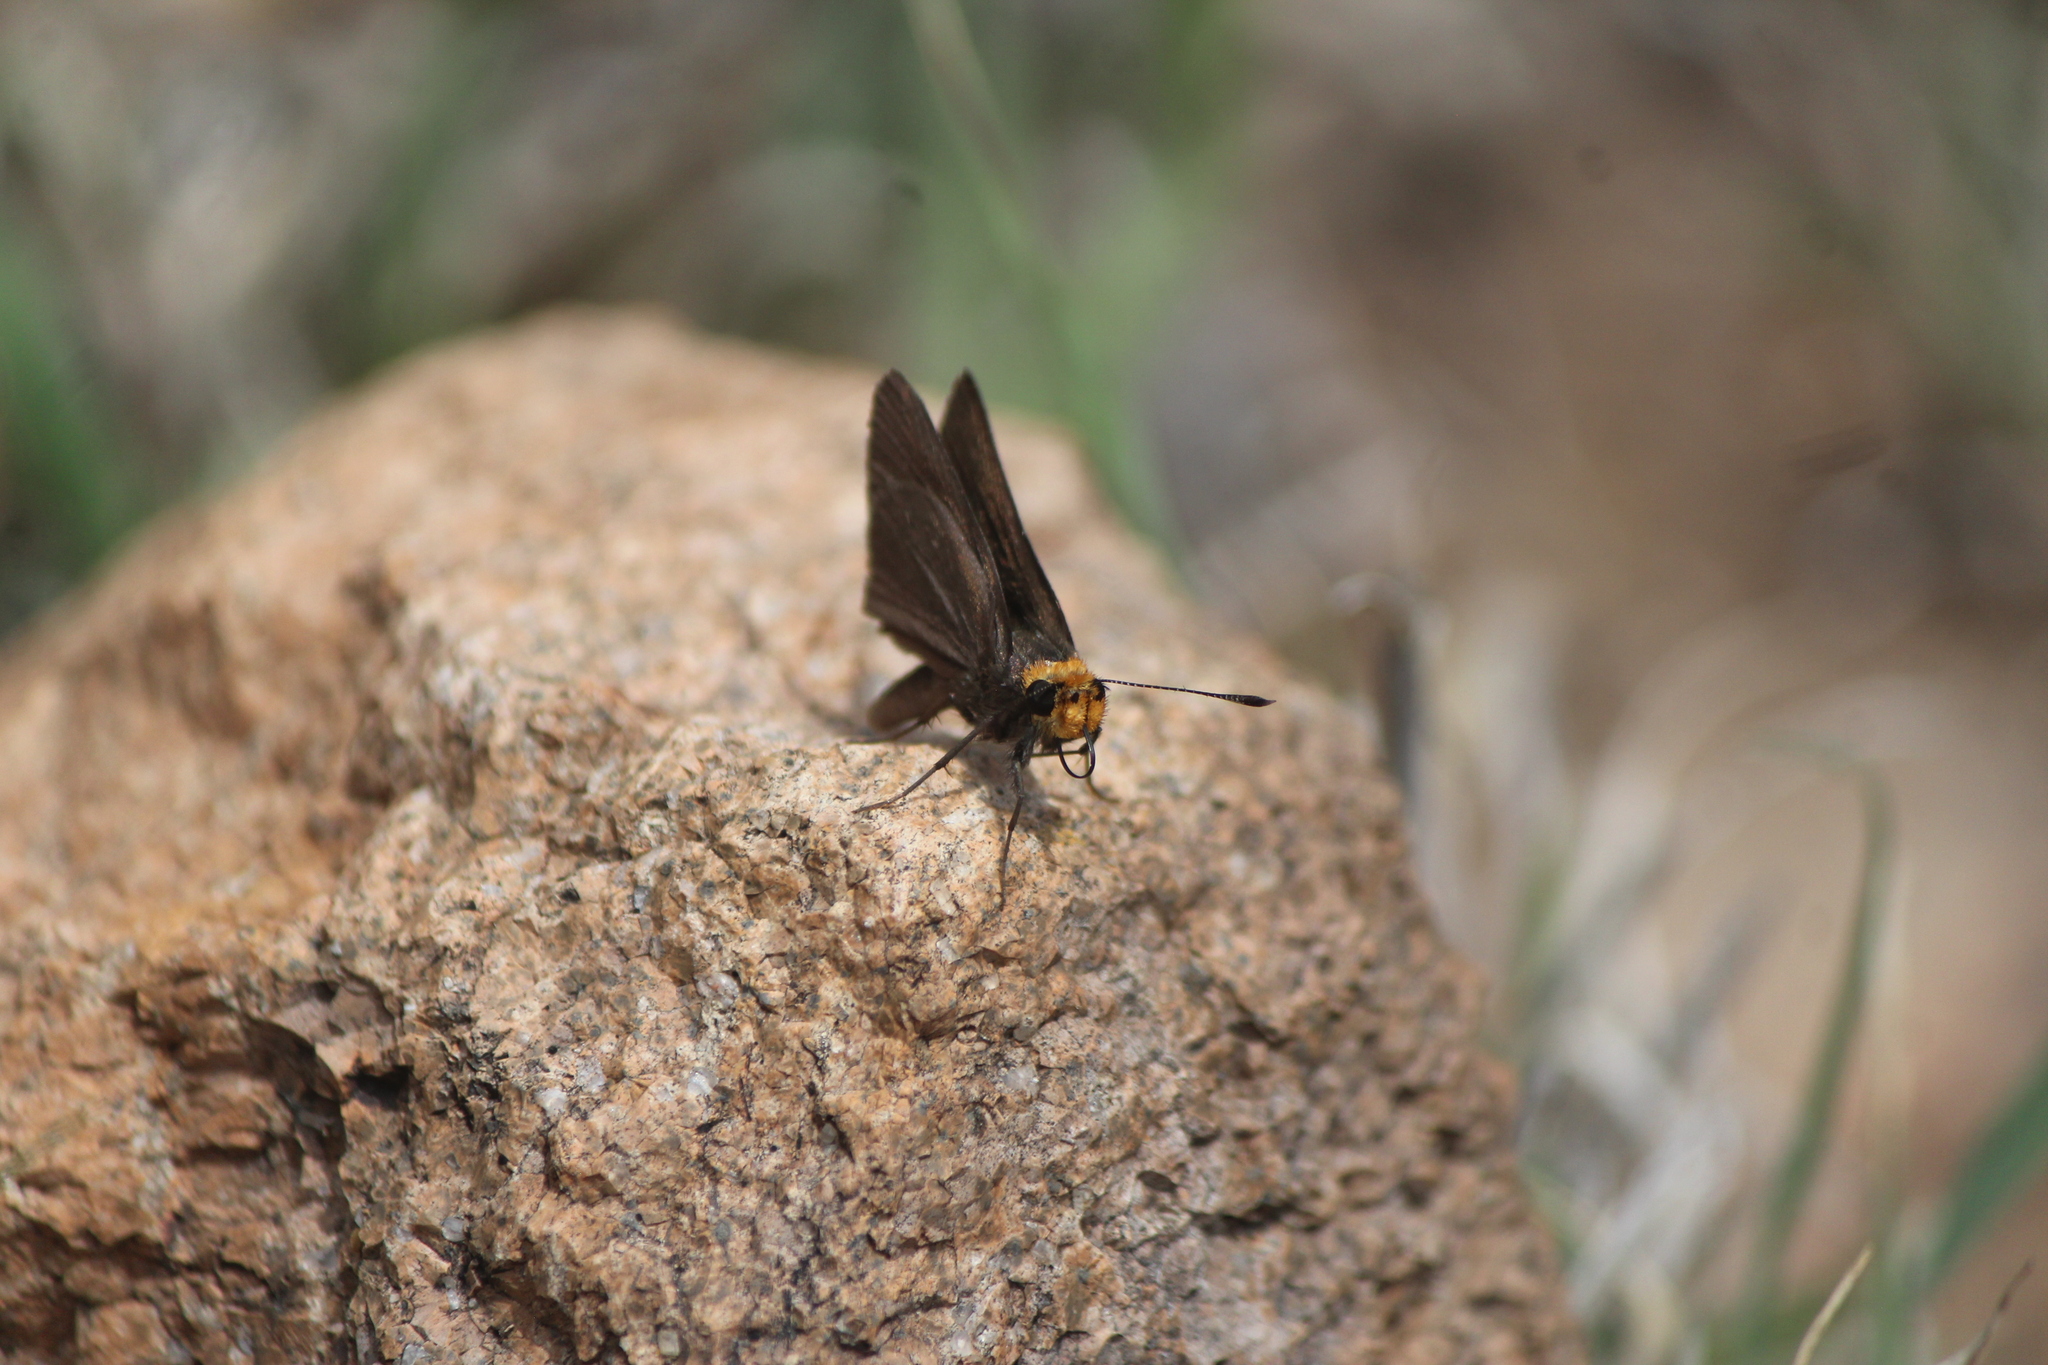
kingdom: Animalia
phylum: Arthropoda
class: Insecta
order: Lepidoptera
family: Hesperiidae
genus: Mastor
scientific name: Mastor fimbriata
